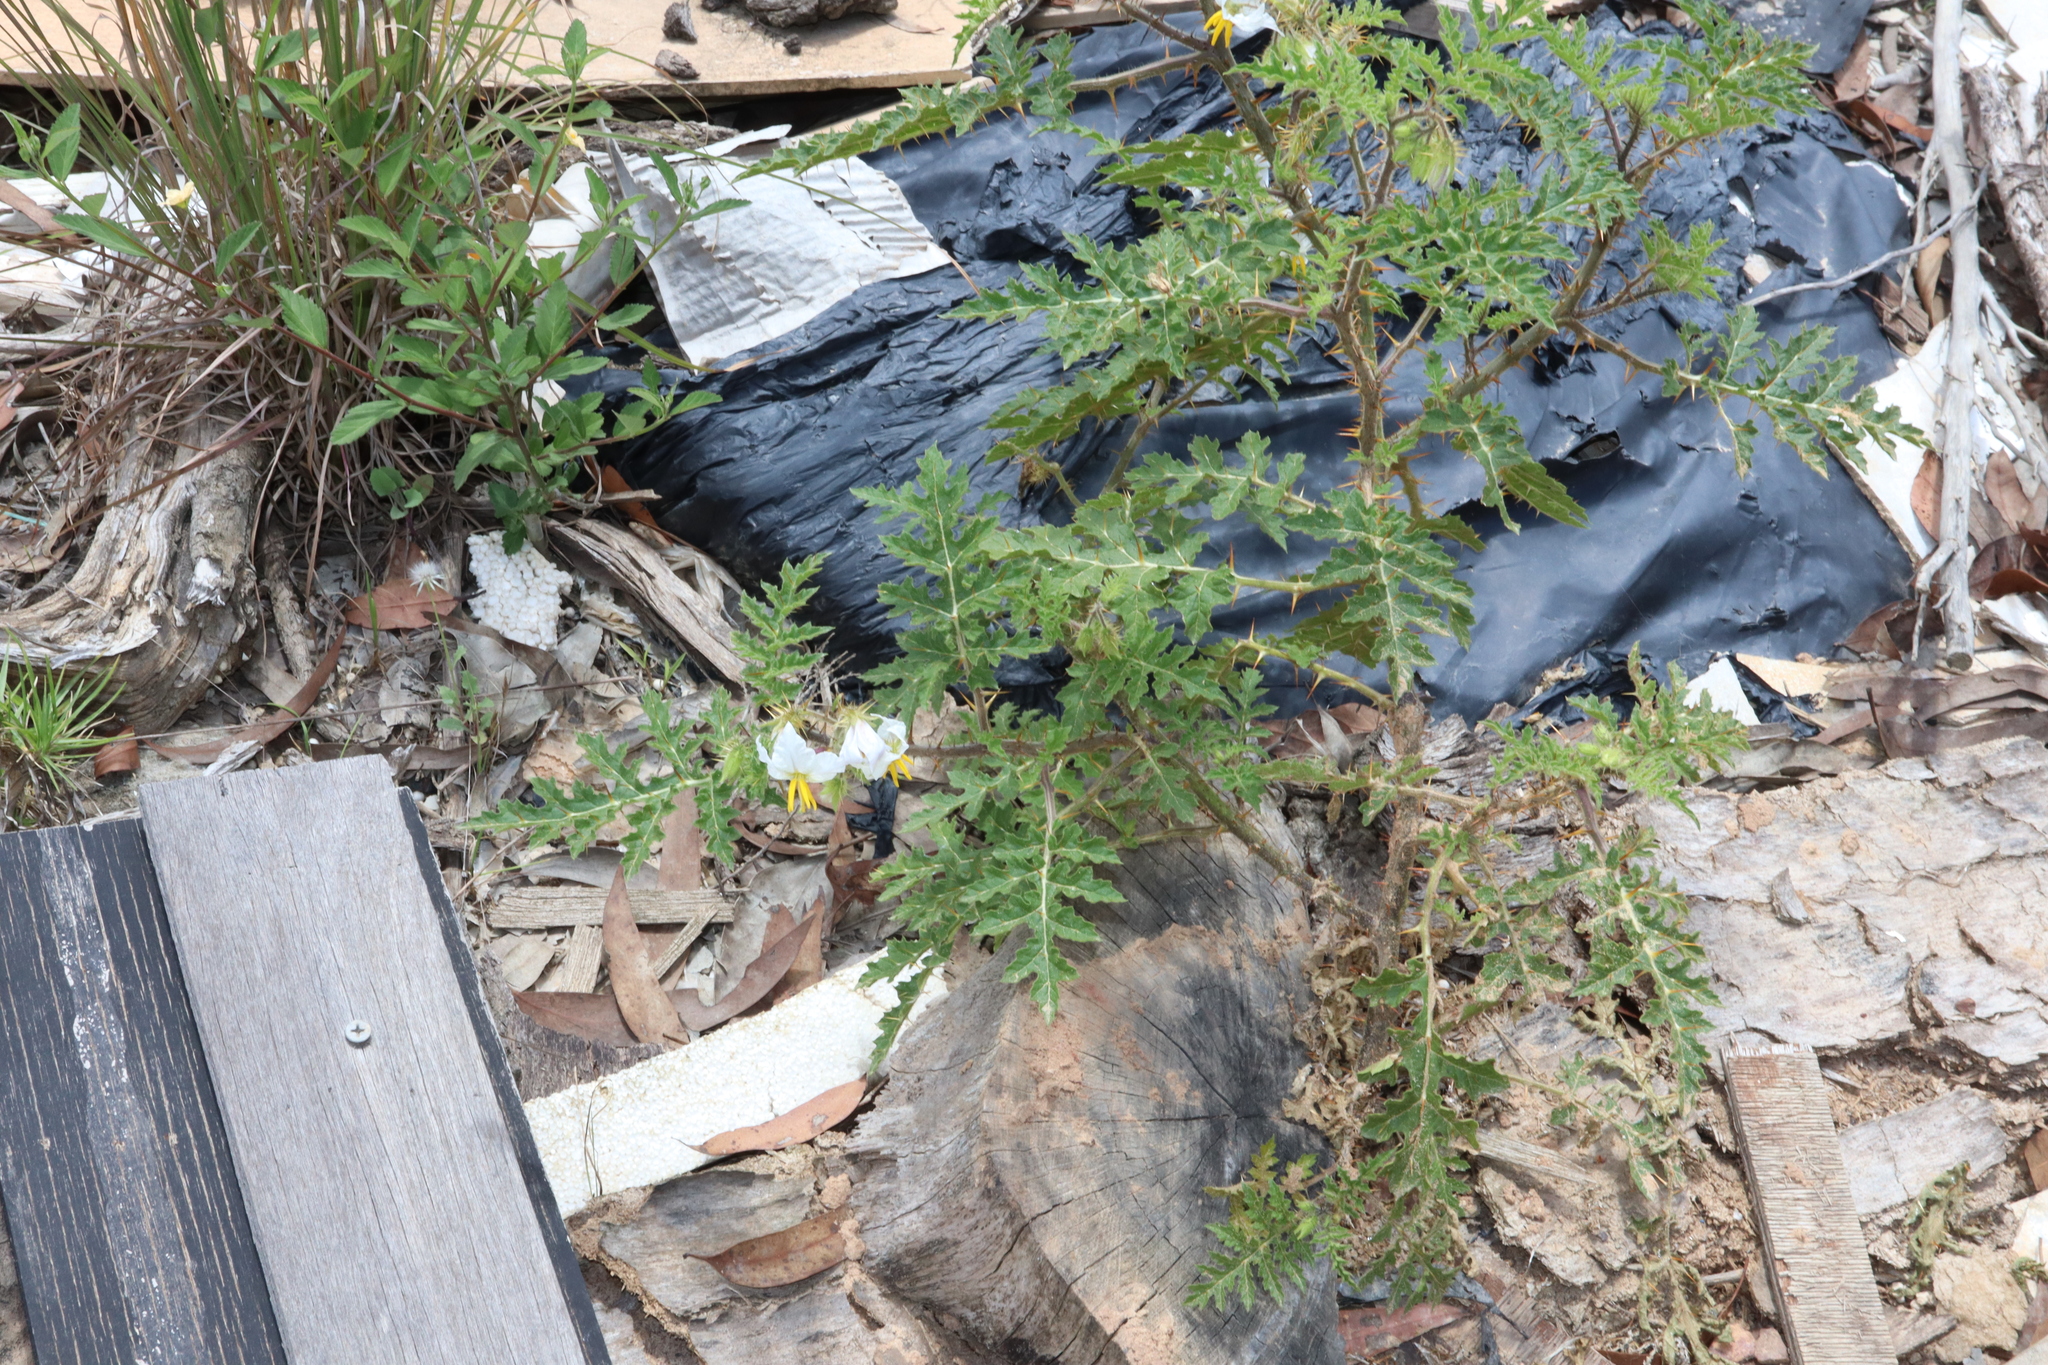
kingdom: Plantae
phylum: Tracheophyta
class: Magnoliopsida
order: Solanales
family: Solanaceae
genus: Solanum
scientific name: Solanum sisymbriifolium
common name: Red buffalo-bur
